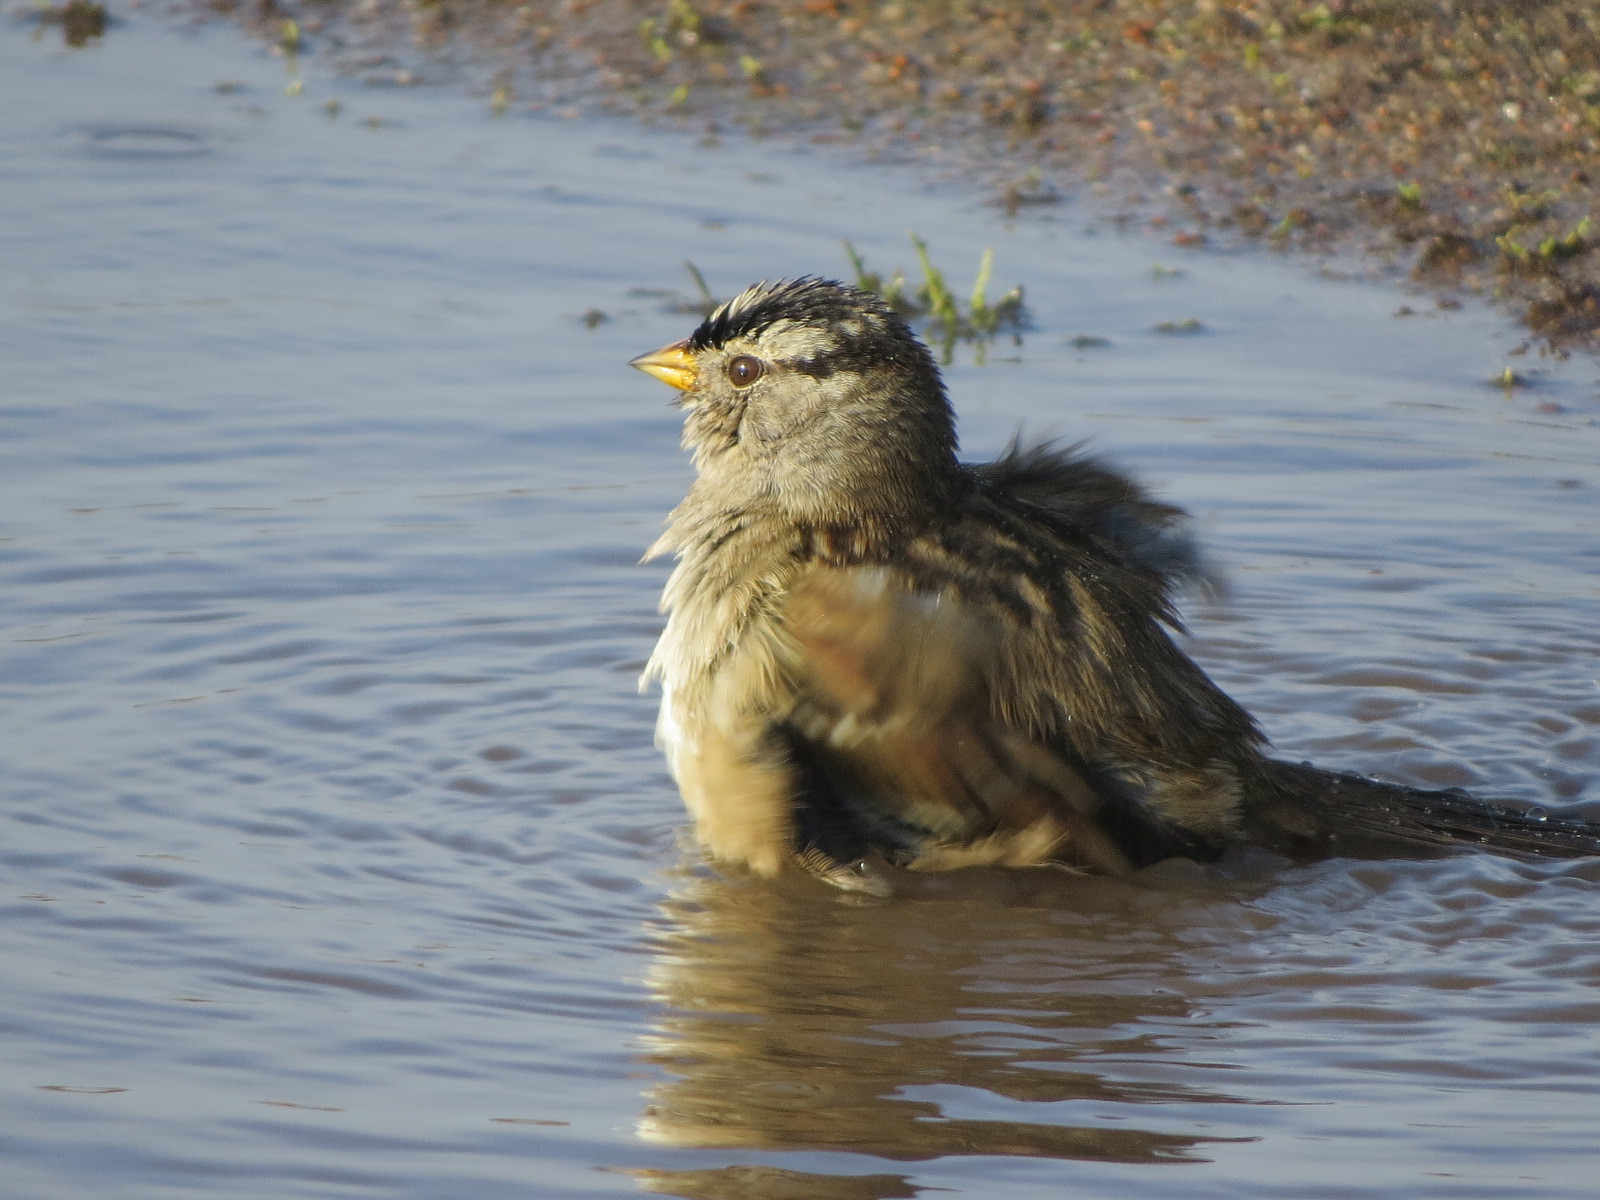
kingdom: Animalia
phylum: Chordata
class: Aves
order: Passeriformes
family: Passerellidae
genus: Zonotrichia
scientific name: Zonotrichia leucophrys
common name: White-crowned sparrow
